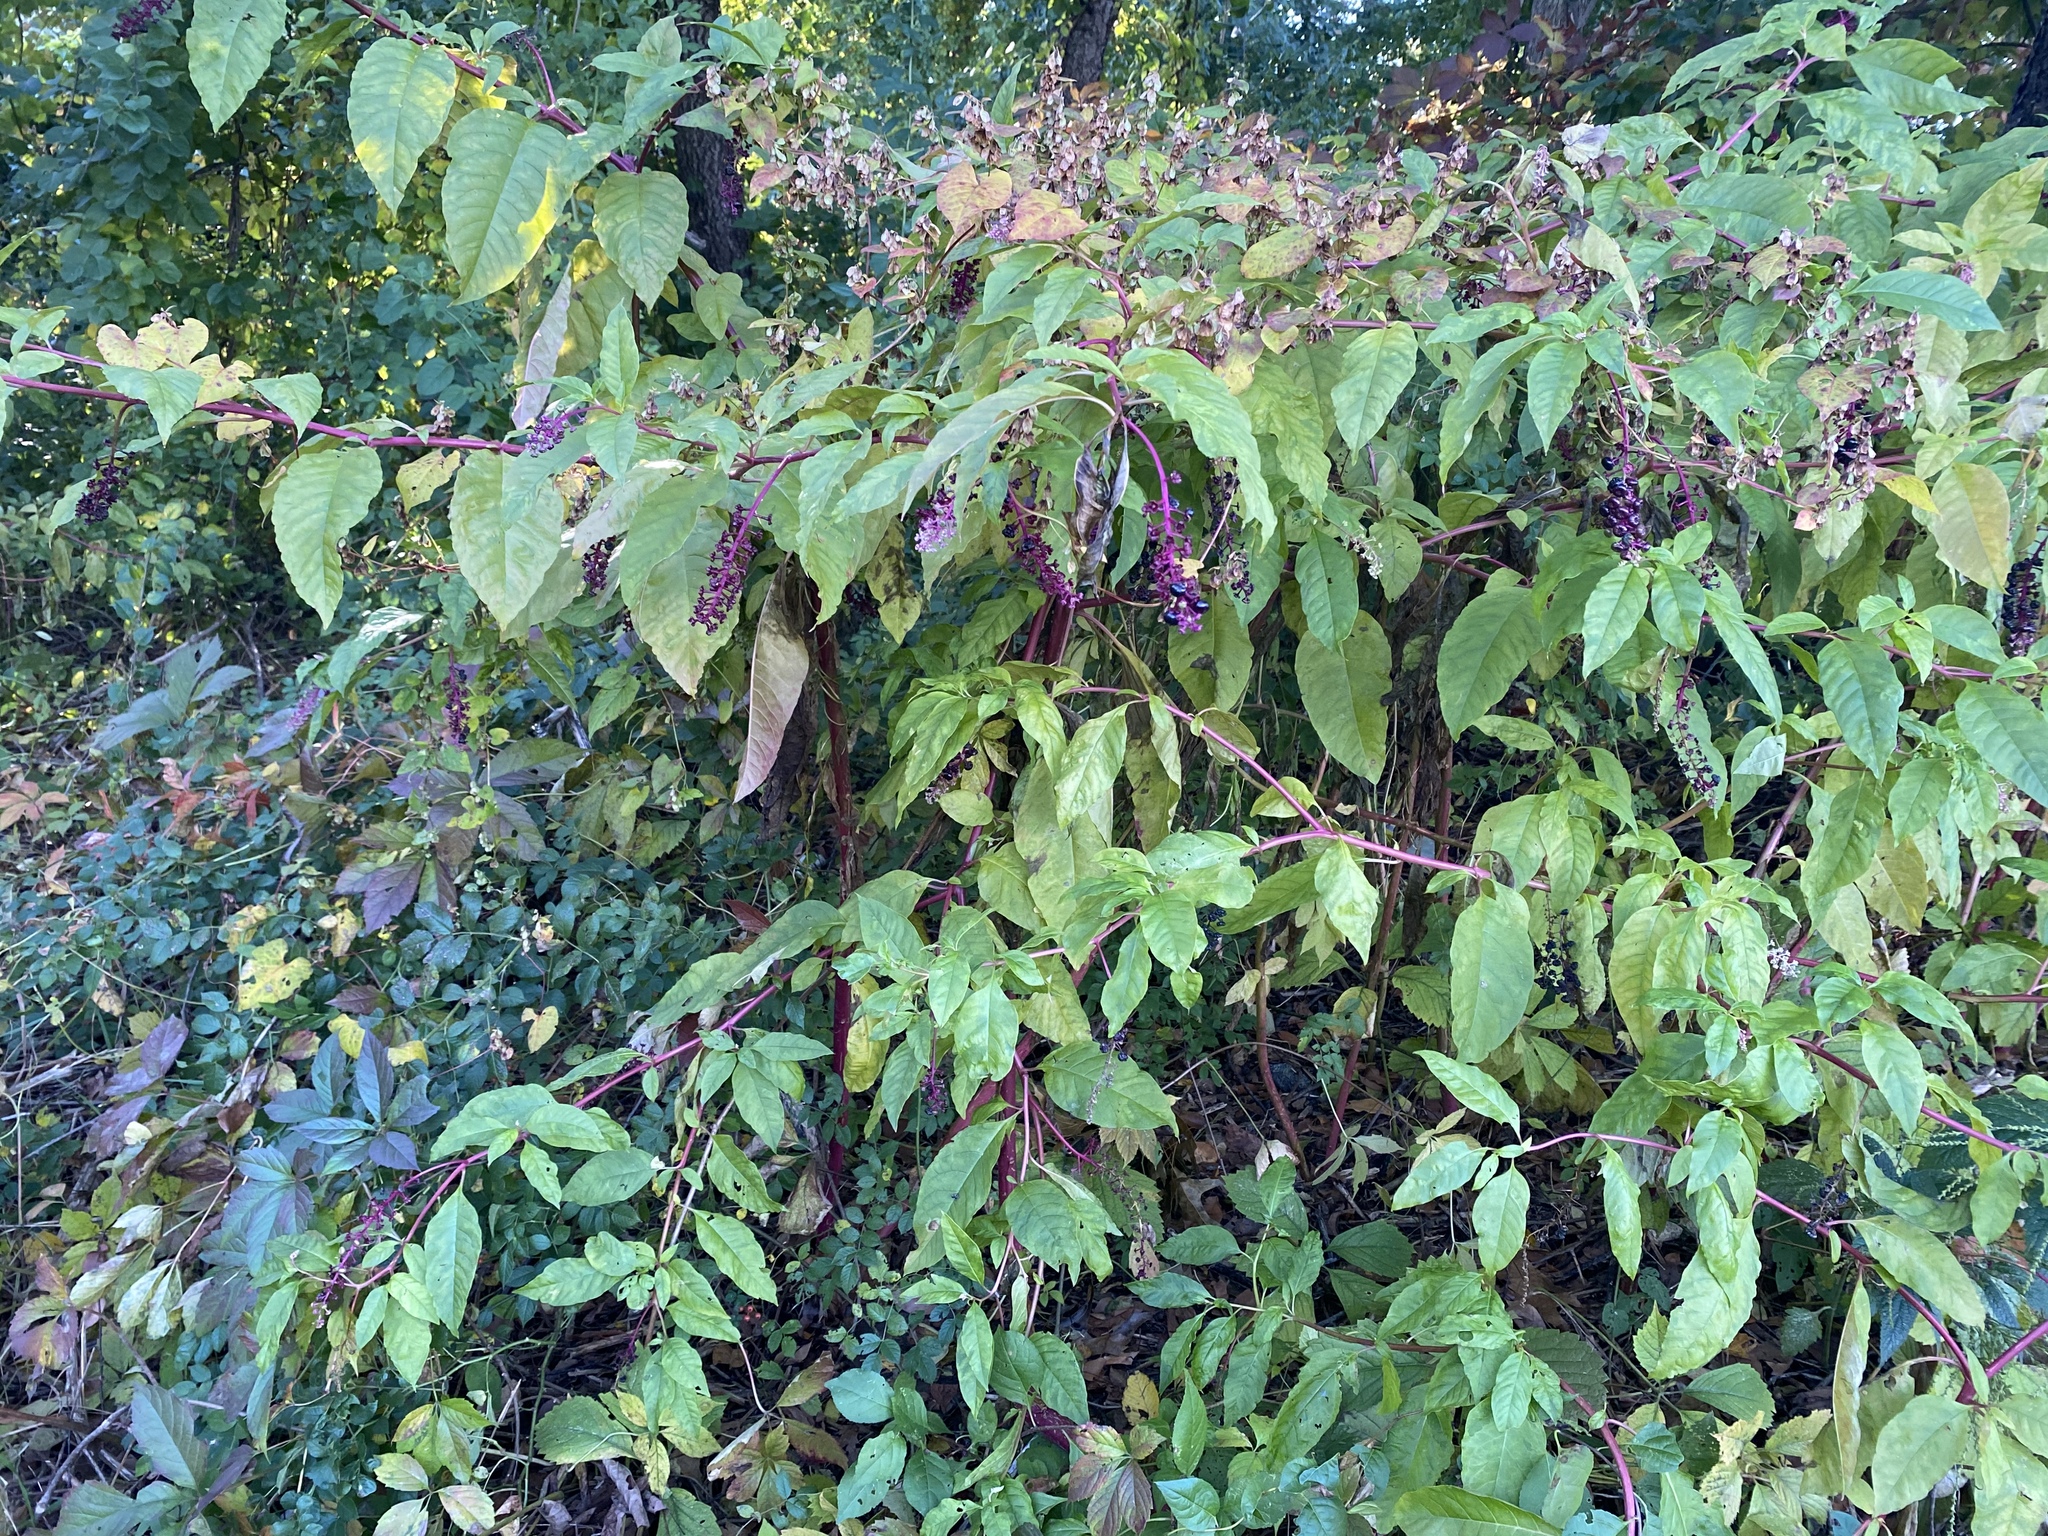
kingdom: Plantae
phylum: Tracheophyta
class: Magnoliopsida
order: Caryophyllales
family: Phytolaccaceae
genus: Phytolacca
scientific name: Phytolacca americana
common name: American pokeweed
